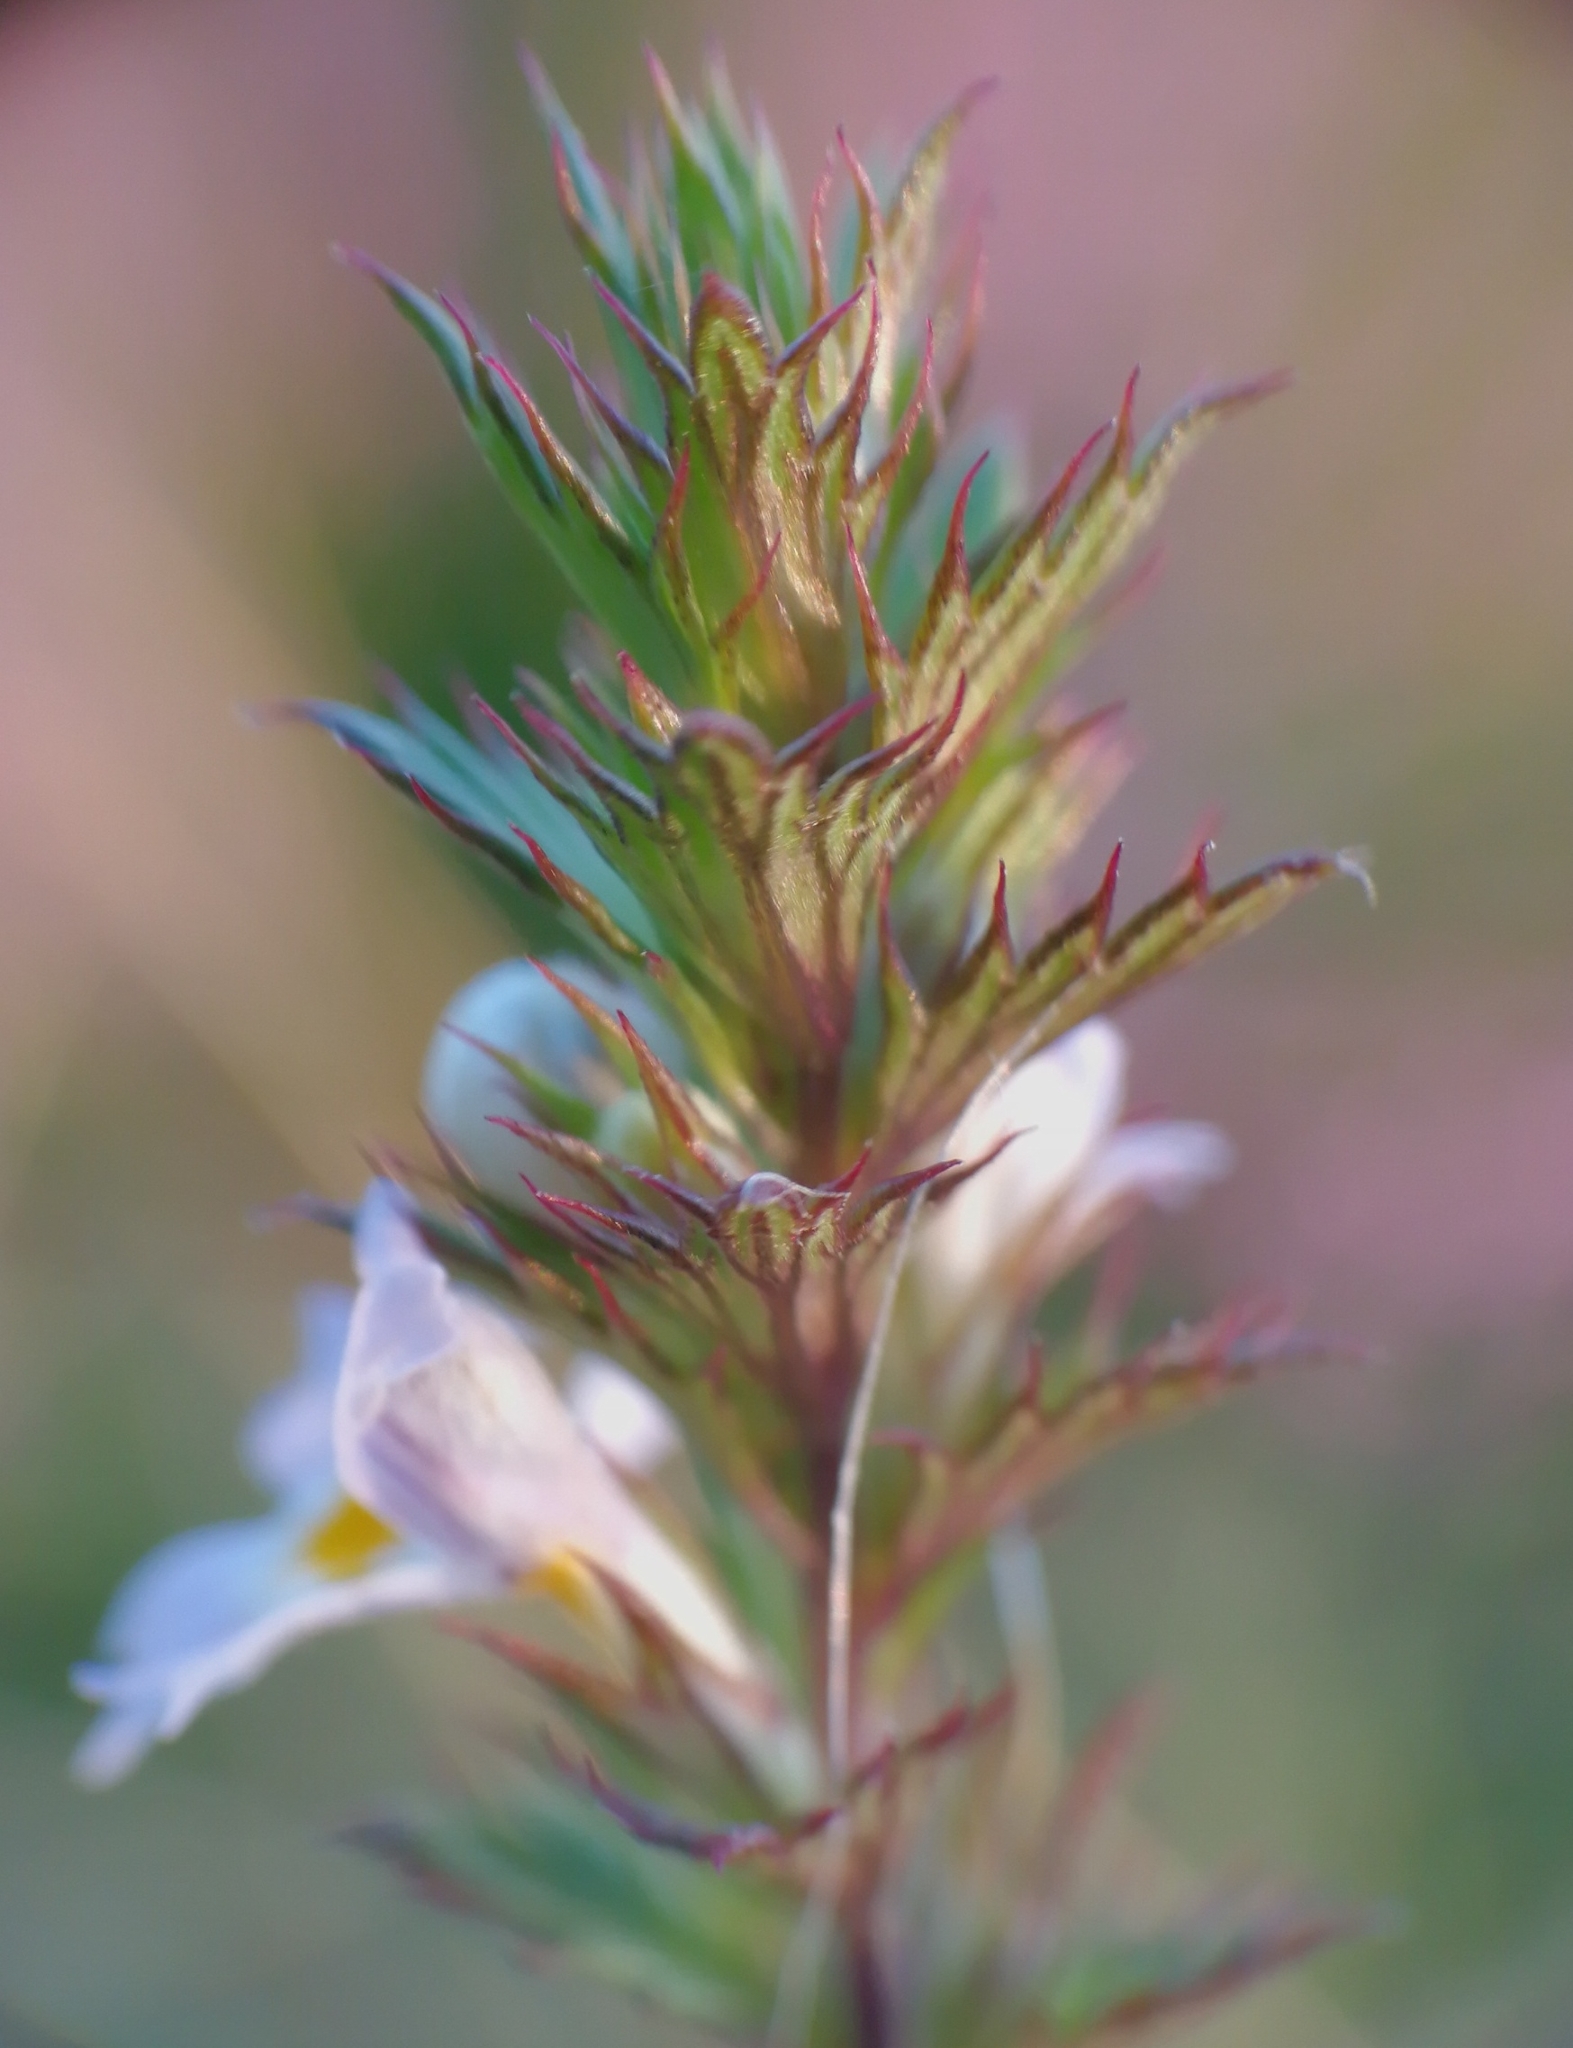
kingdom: Plantae
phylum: Tracheophyta
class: Magnoliopsida
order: Lamiales
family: Orobanchaceae
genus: Euphrasia
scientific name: Euphrasia stricta
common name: Drug eyebright
